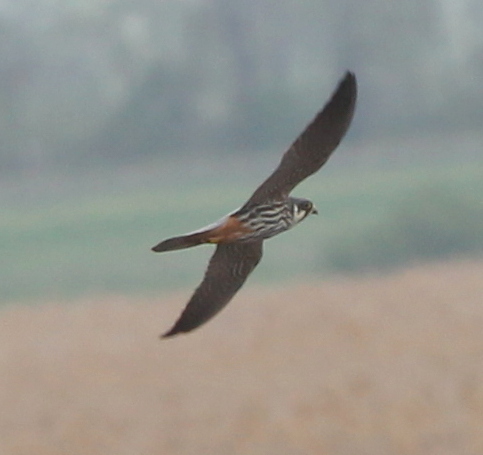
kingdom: Animalia
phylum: Chordata
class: Aves
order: Falconiformes
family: Falconidae
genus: Falco
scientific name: Falco subbuteo
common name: Eurasian hobby
